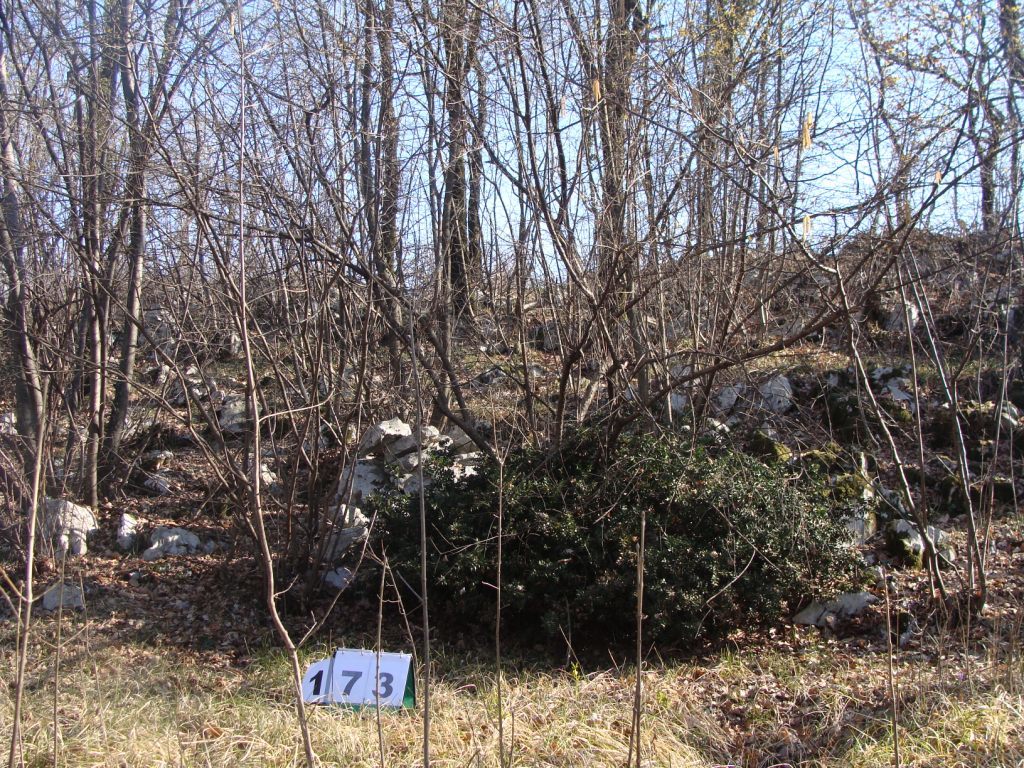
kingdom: Plantae
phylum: Tracheophyta
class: Magnoliopsida
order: Cornales
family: Cornaceae
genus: Cornus
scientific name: Cornus mas
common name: Cornelian-cherry
